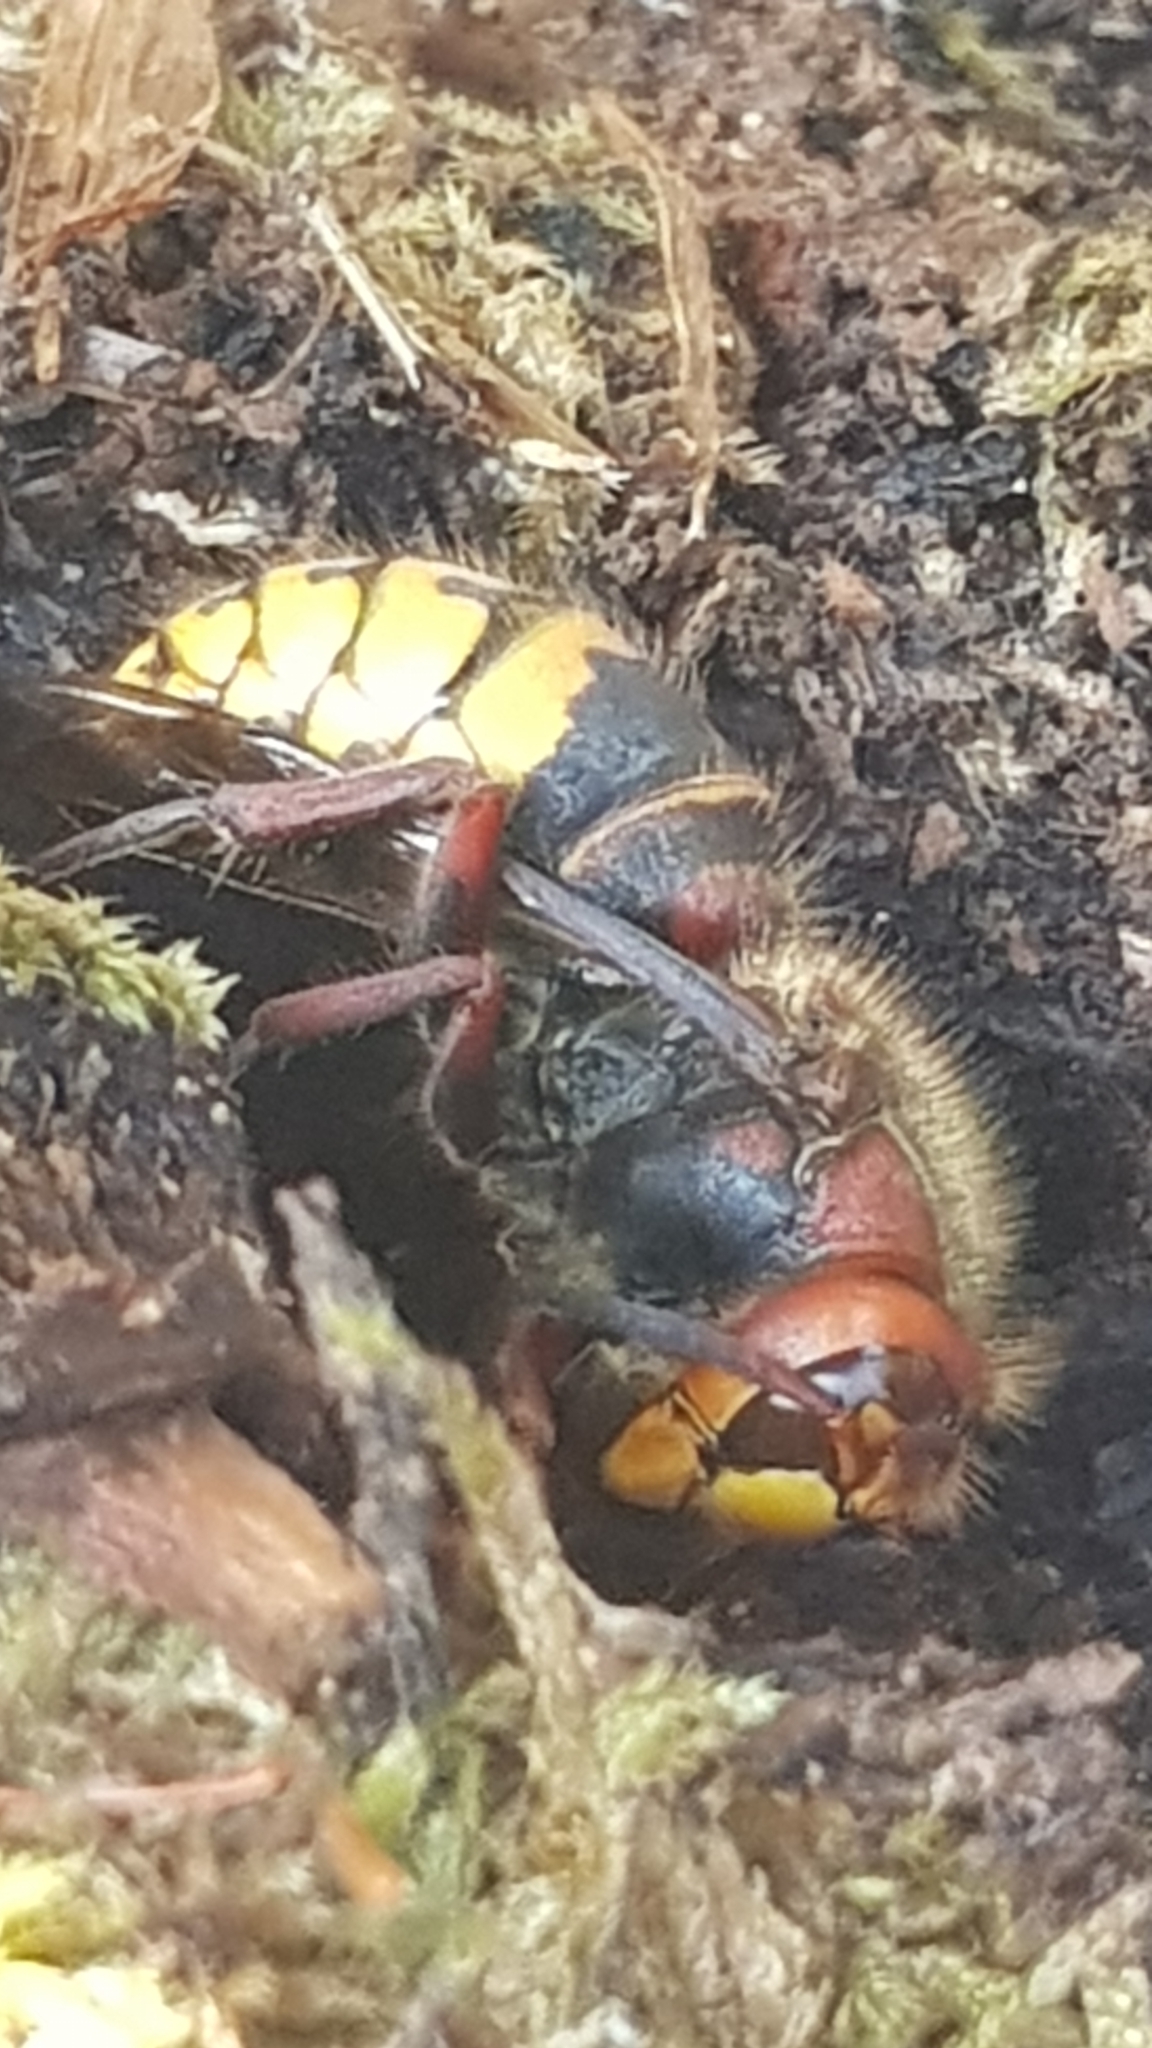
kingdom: Animalia
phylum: Arthropoda
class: Insecta
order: Hymenoptera
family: Vespidae
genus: Vespa
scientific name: Vespa crabro
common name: Hornet
